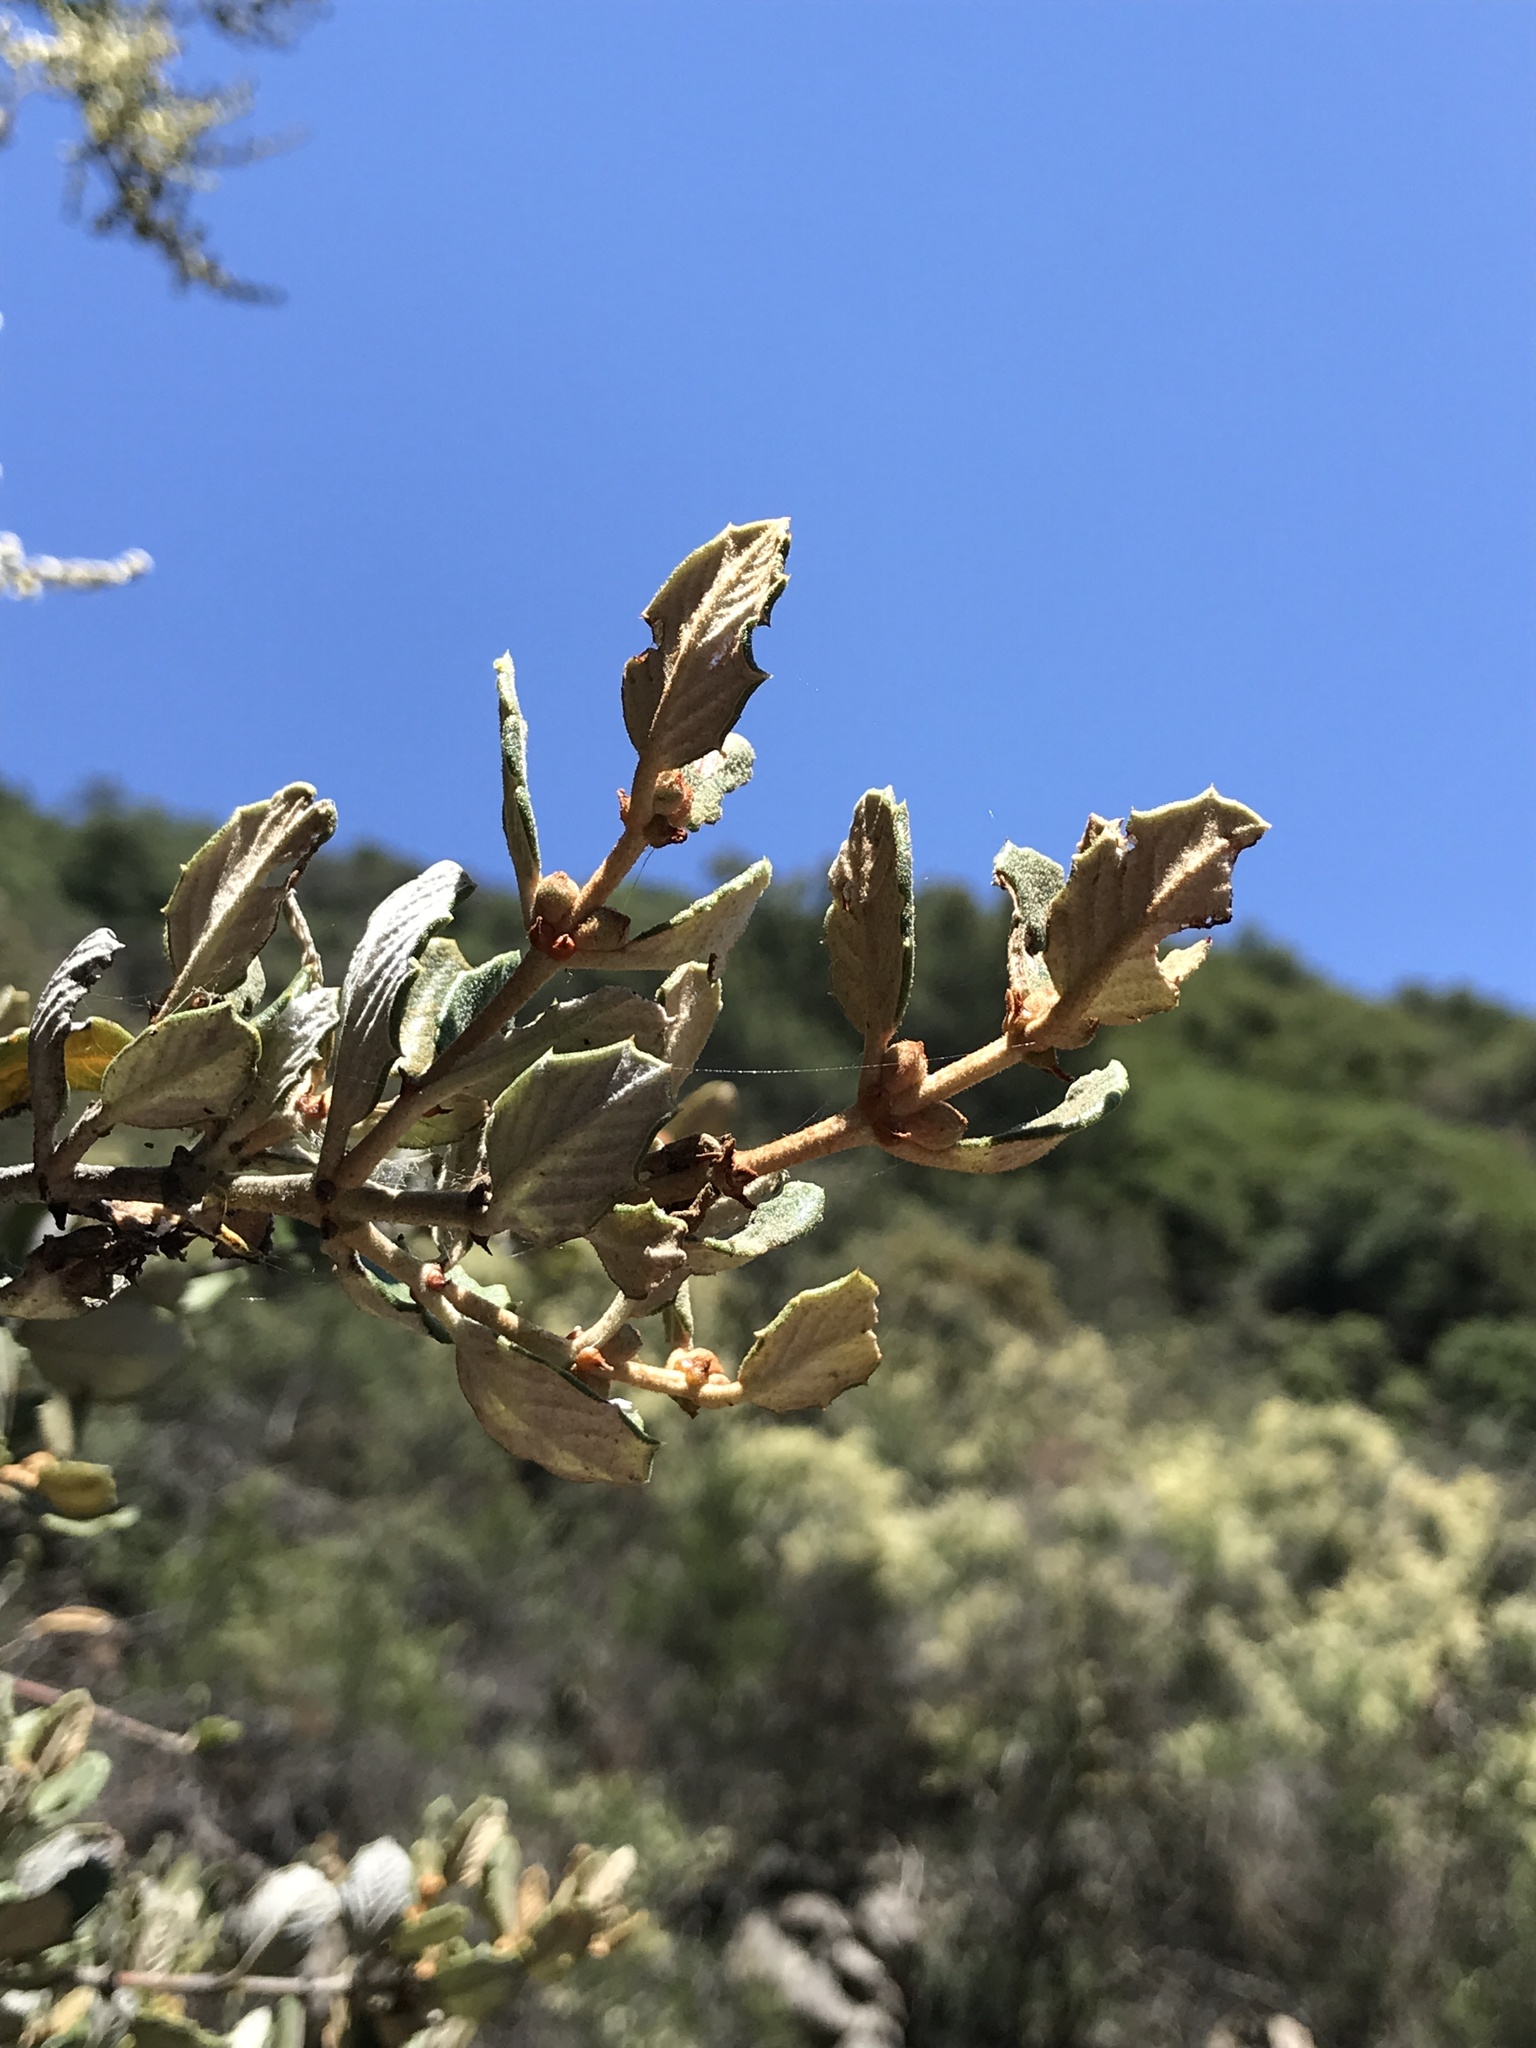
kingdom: Plantae
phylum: Tracheophyta
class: Magnoliopsida
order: Rosales
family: Rhamnaceae
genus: Ceanothus
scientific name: Ceanothus crassifolius
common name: Hoaryleaf ceanothus
